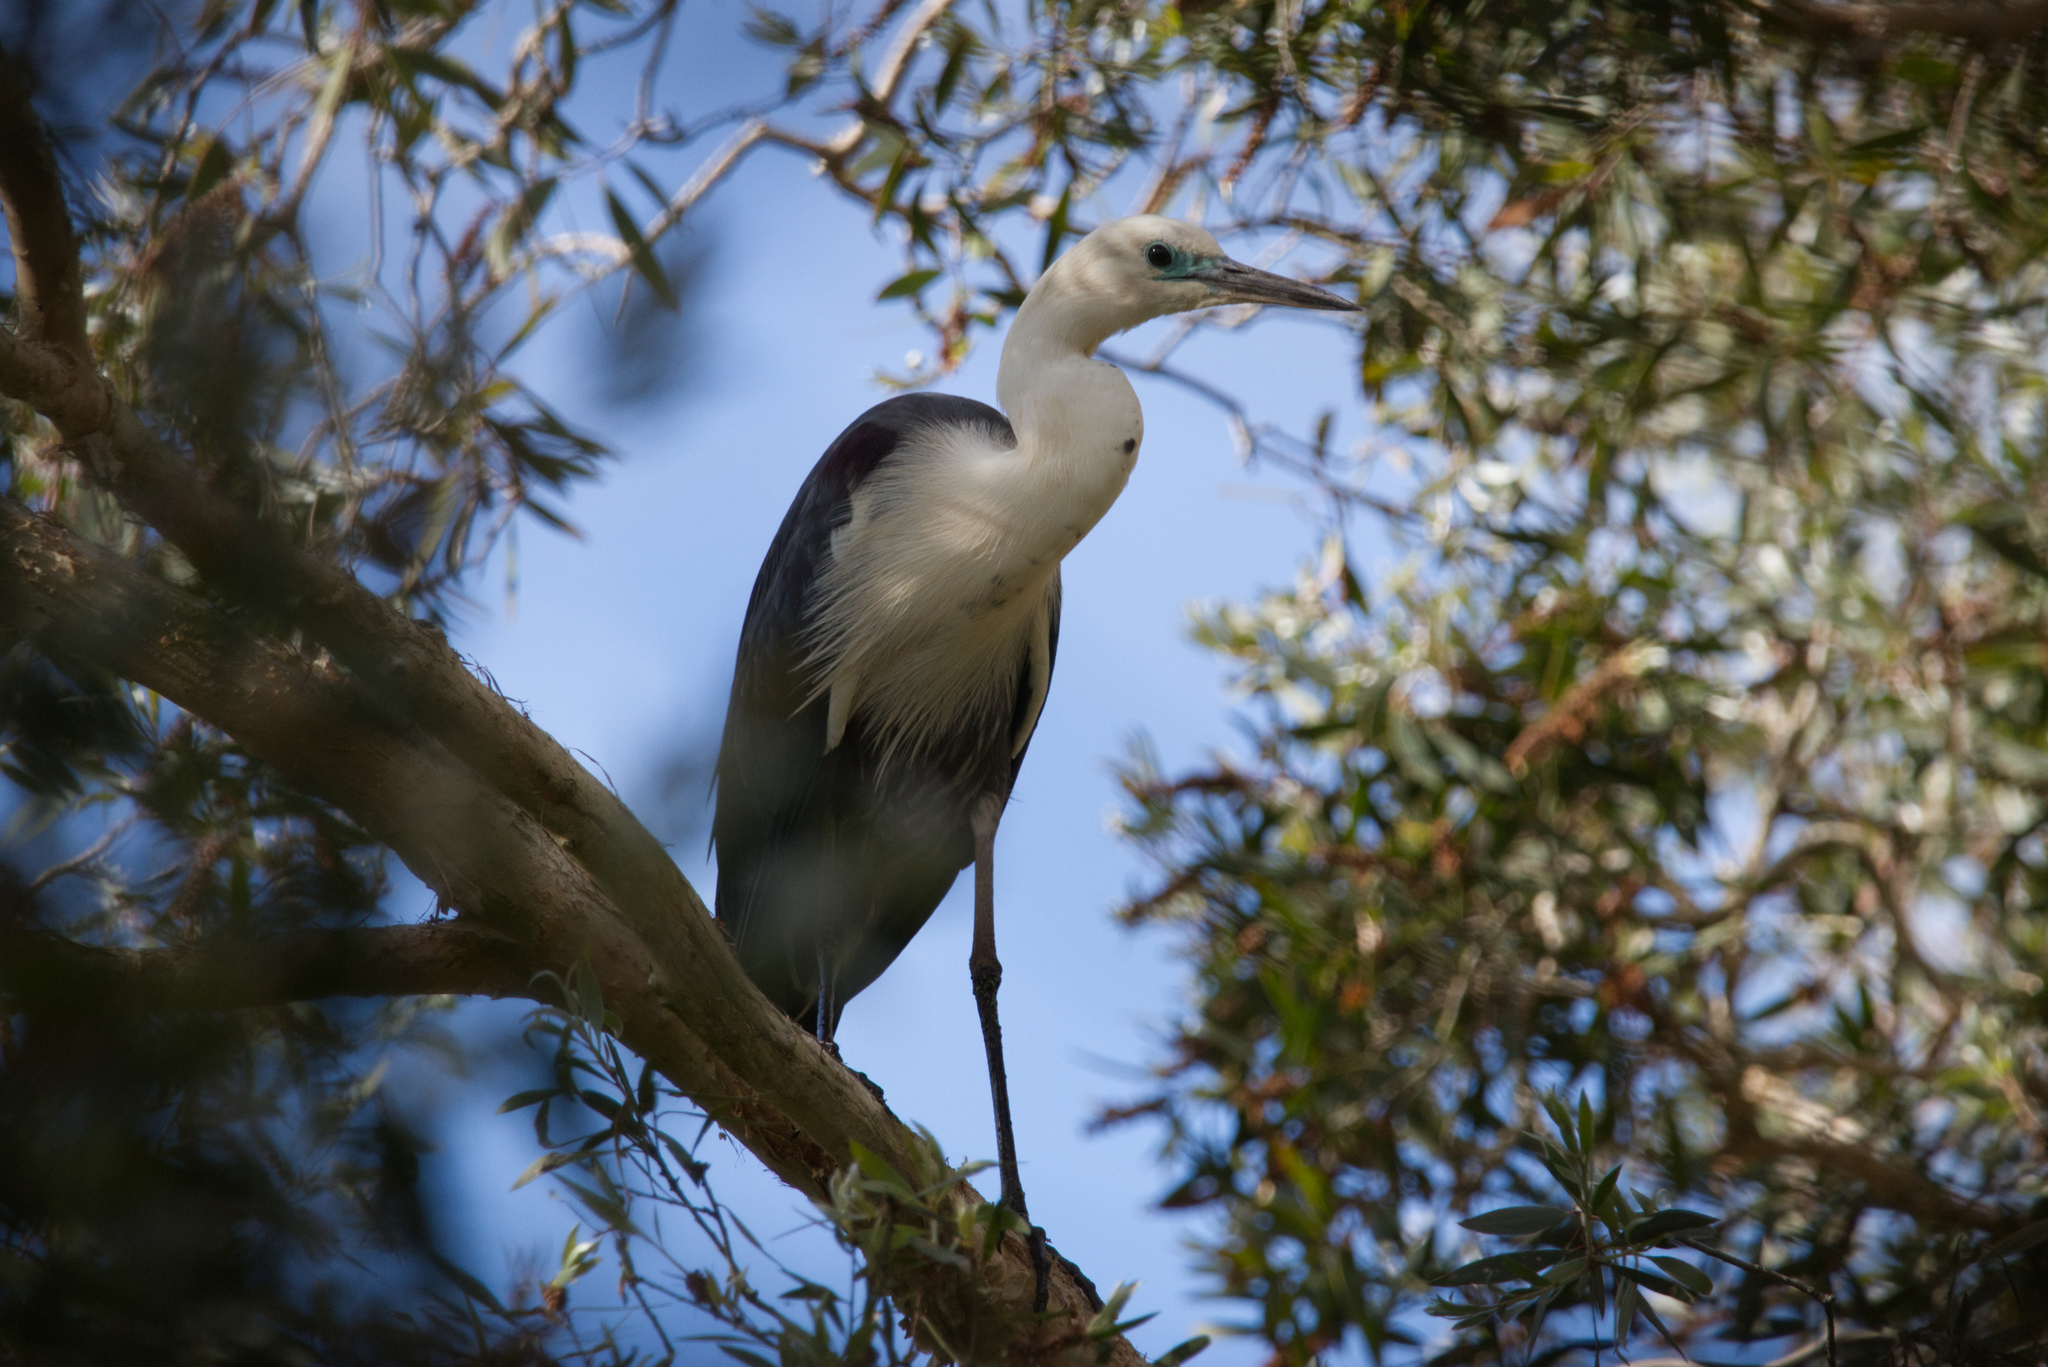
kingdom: Animalia
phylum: Chordata
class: Aves
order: Pelecaniformes
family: Ardeidae
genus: Ardea
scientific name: Ardea pacifica
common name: White-necked heron
